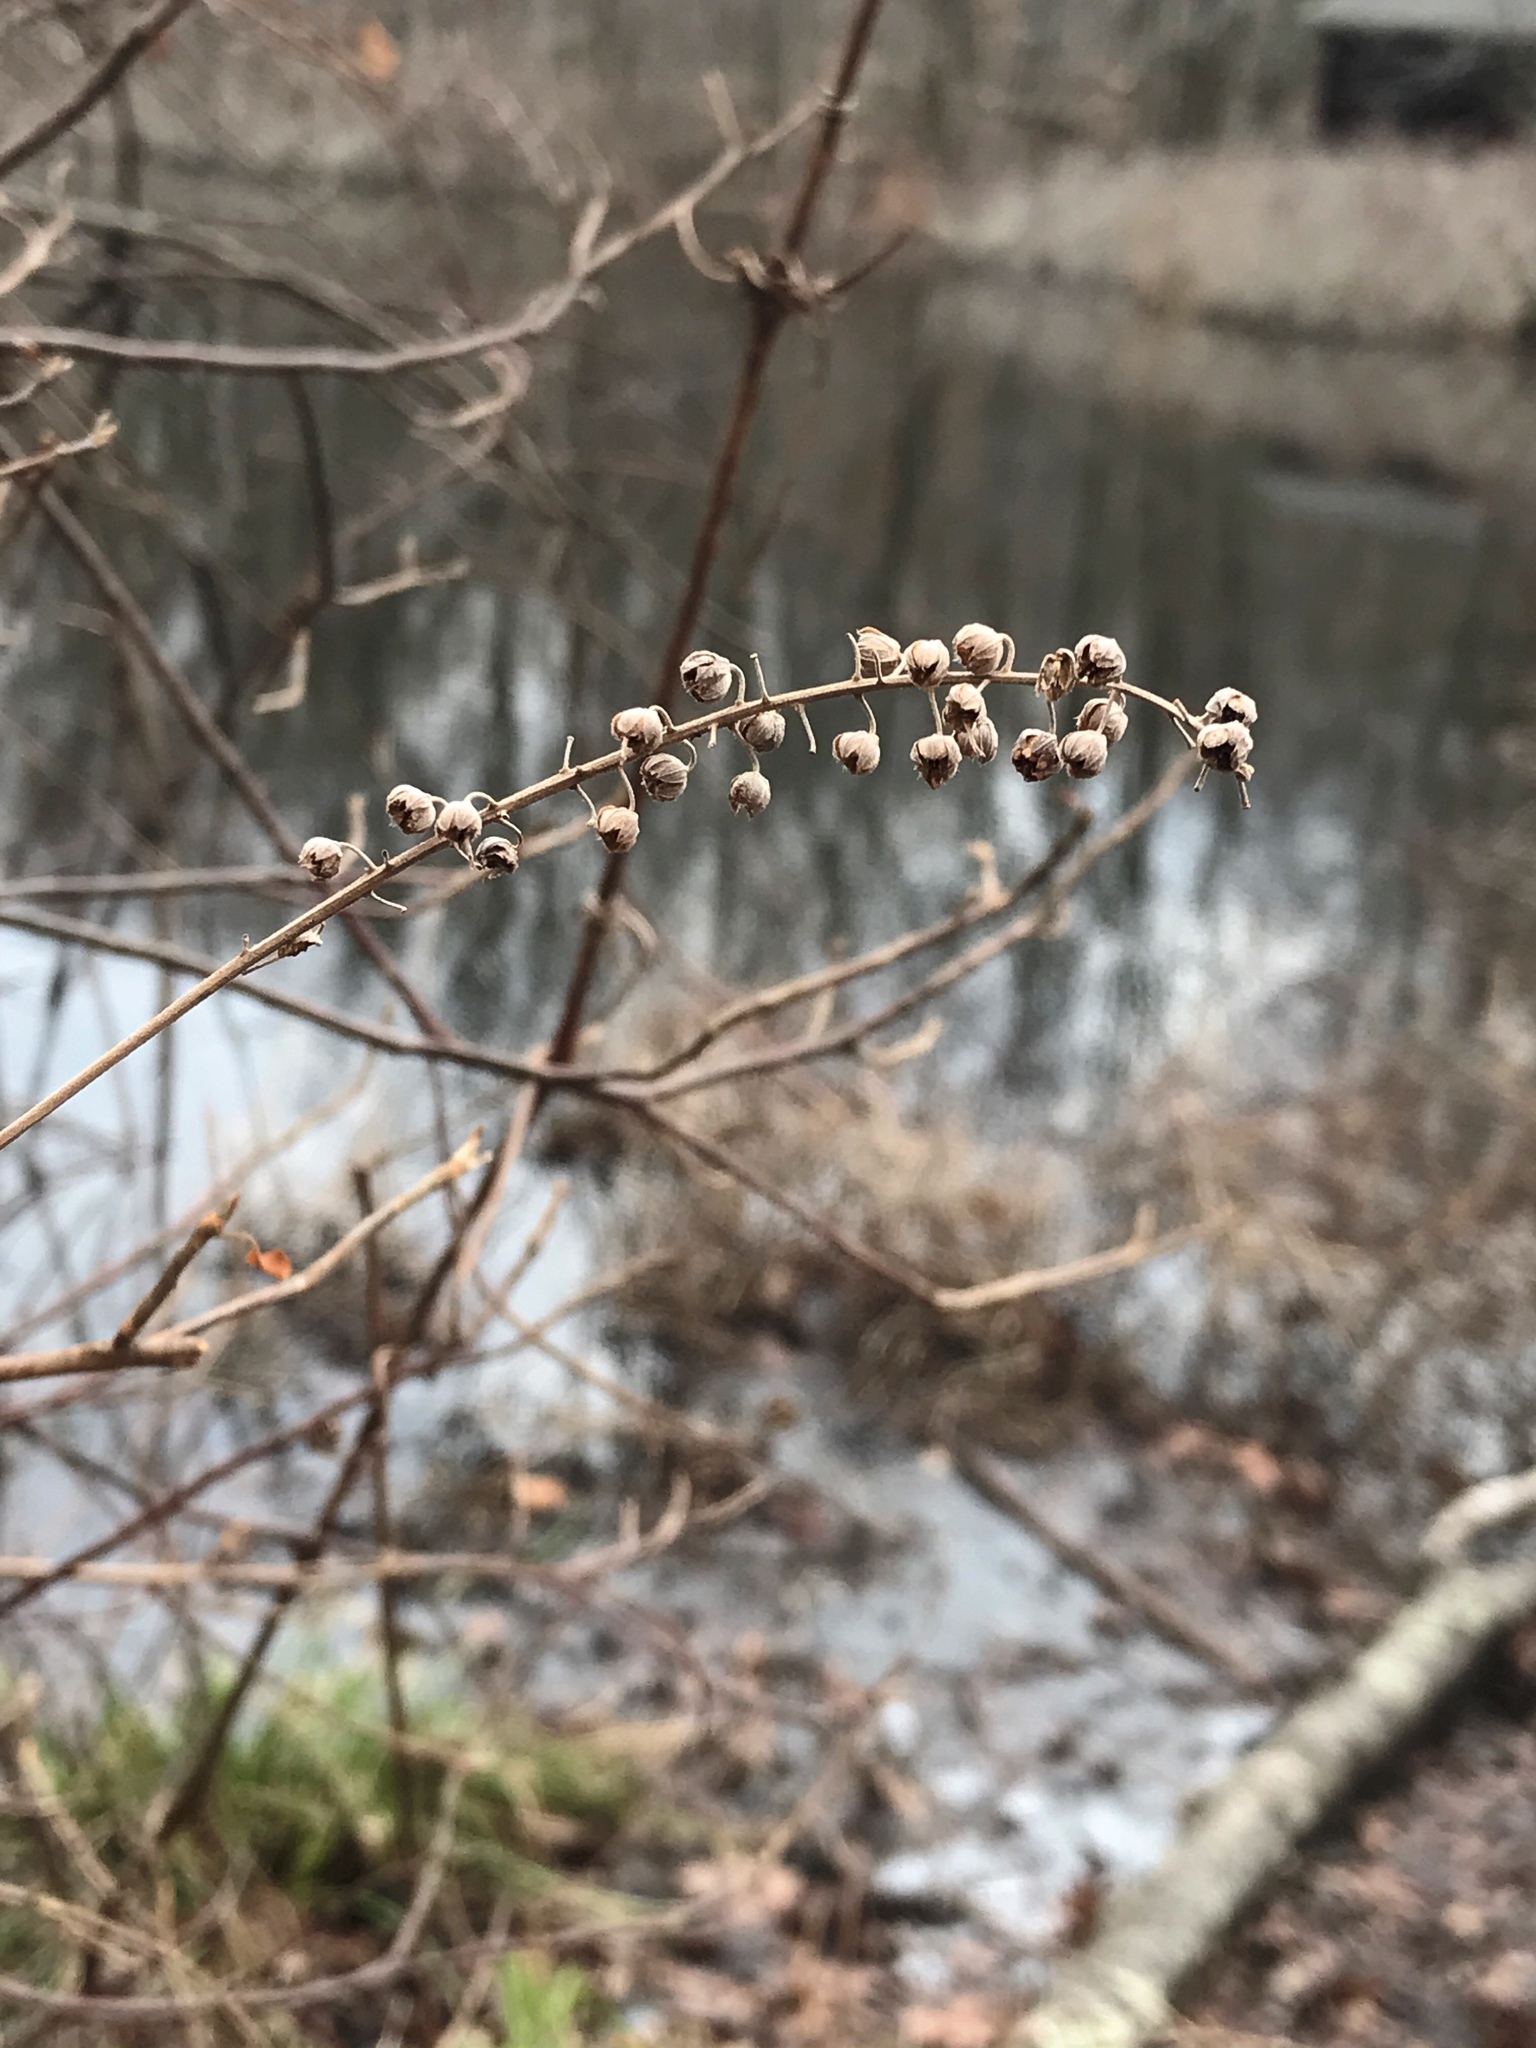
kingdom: Plantae
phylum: Tracheophyta
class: Magnoliopsida
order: Ericales
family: Clethraceae
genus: Clethra
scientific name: Clethra alnifolia
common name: Sweet pepperbush
